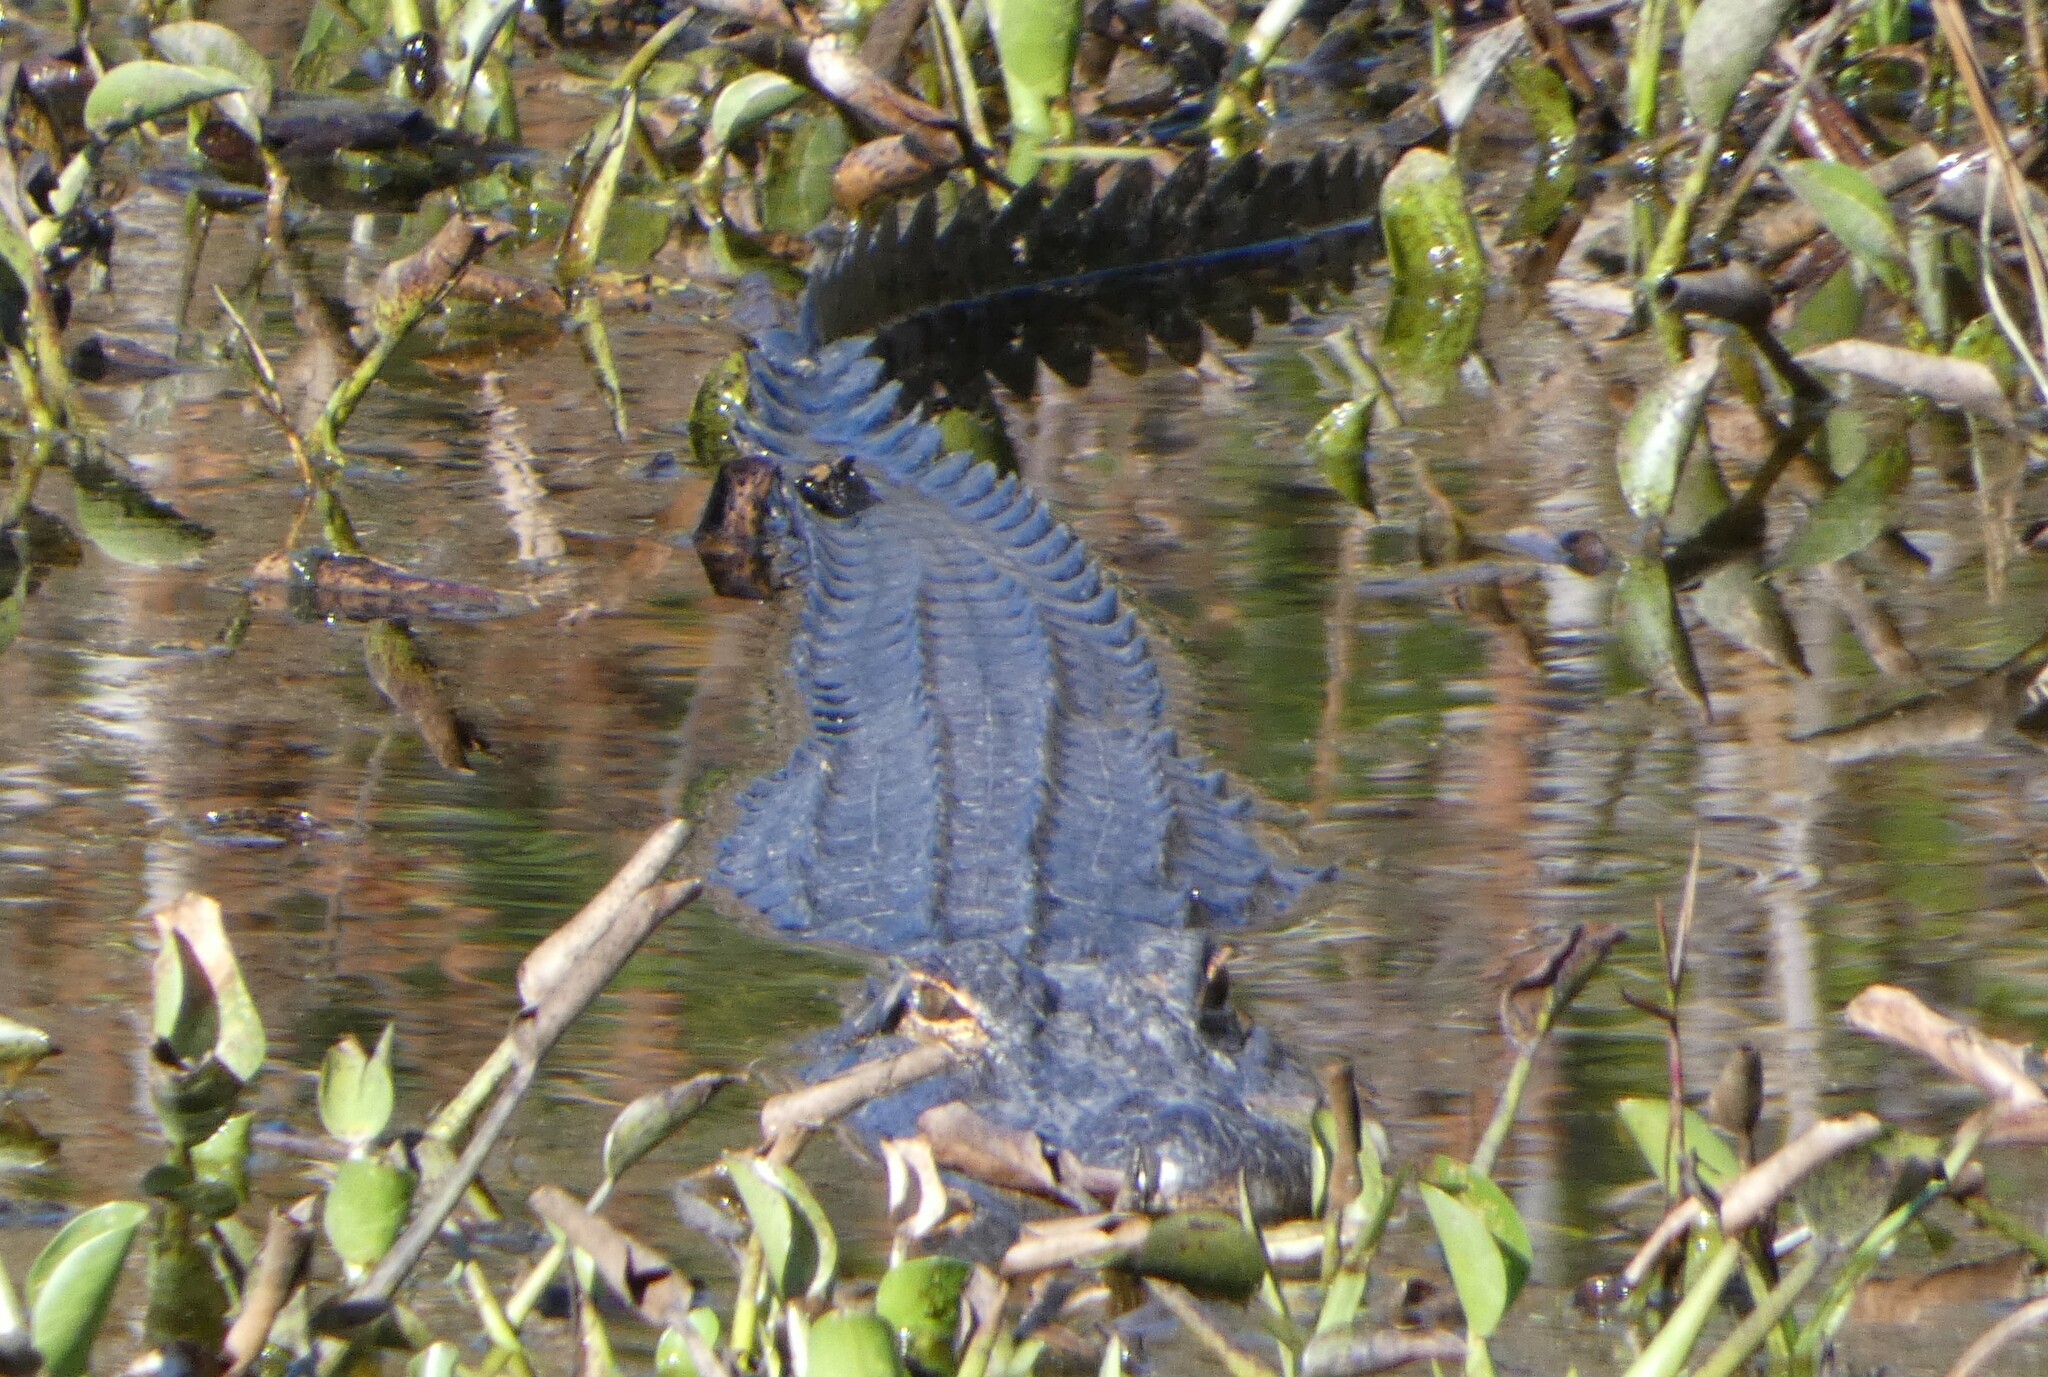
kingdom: Animalia
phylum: Chordata
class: Crocodylia
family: Alligatoridae
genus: Alligator
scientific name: Alligator mississippiensis
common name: American alligator
